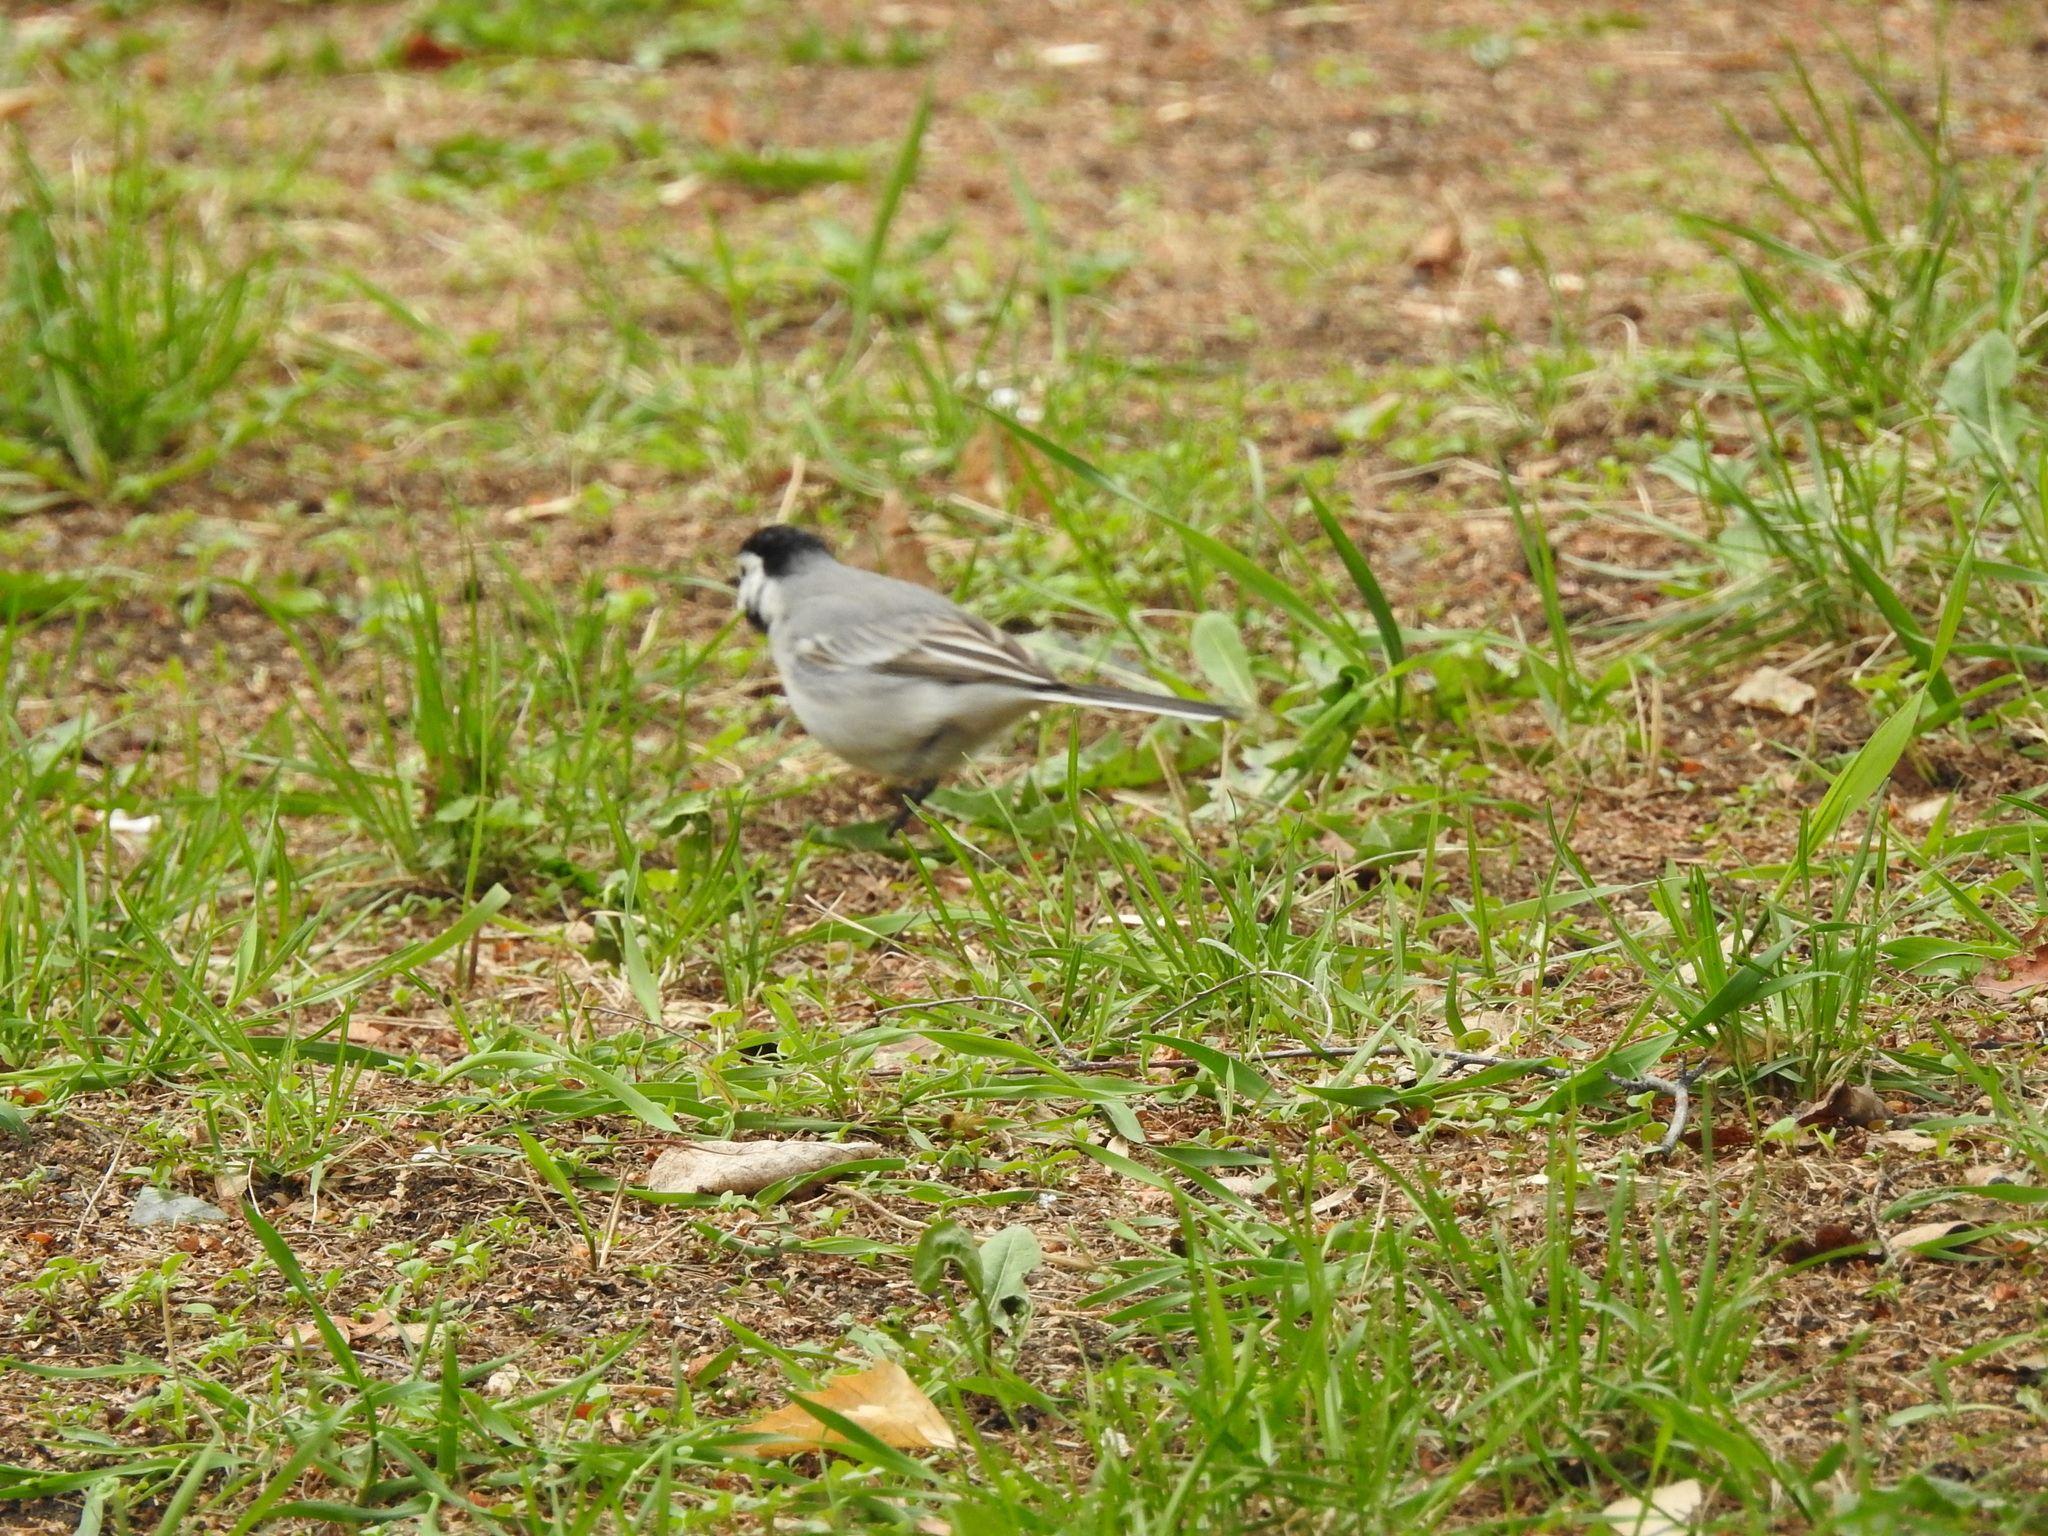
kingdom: Animalia
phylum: Chordata
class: Aves
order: Passeriformes
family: Motacillidae
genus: Motacilla
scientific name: Motacilla alba
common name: White wagtail
